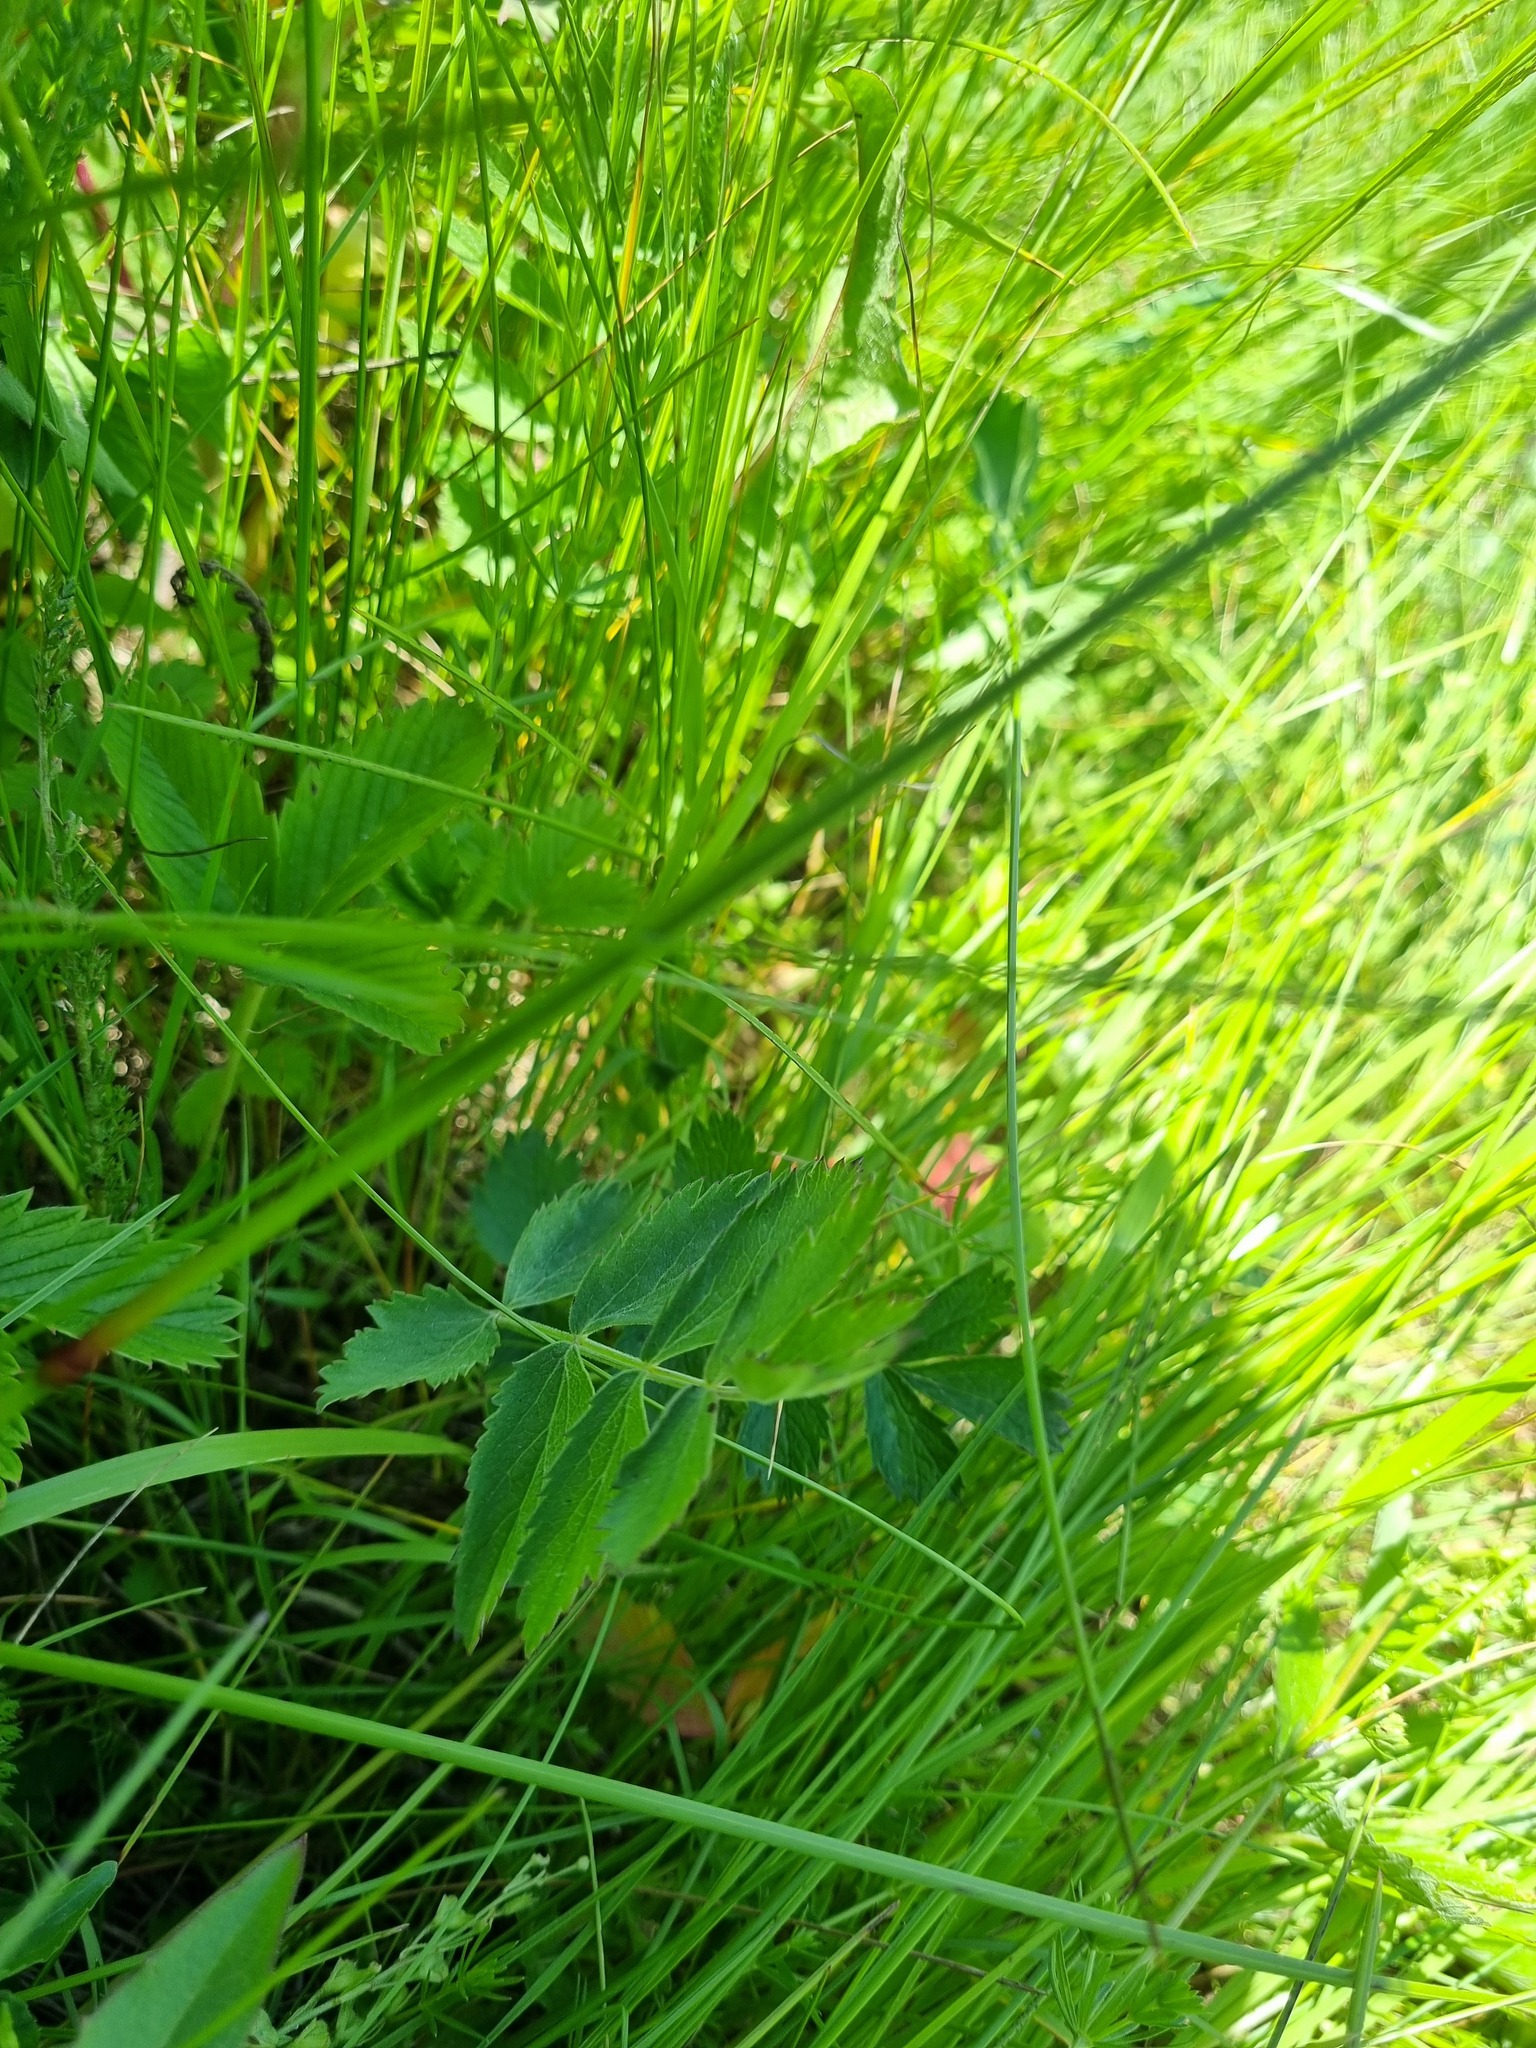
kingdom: Plantae
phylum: Tracheophyta
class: Magnoliopsida
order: Apiales
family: Apiaceae
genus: Pimpinella
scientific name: Pimpinella saxifraga
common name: Burnet-saxifrage
